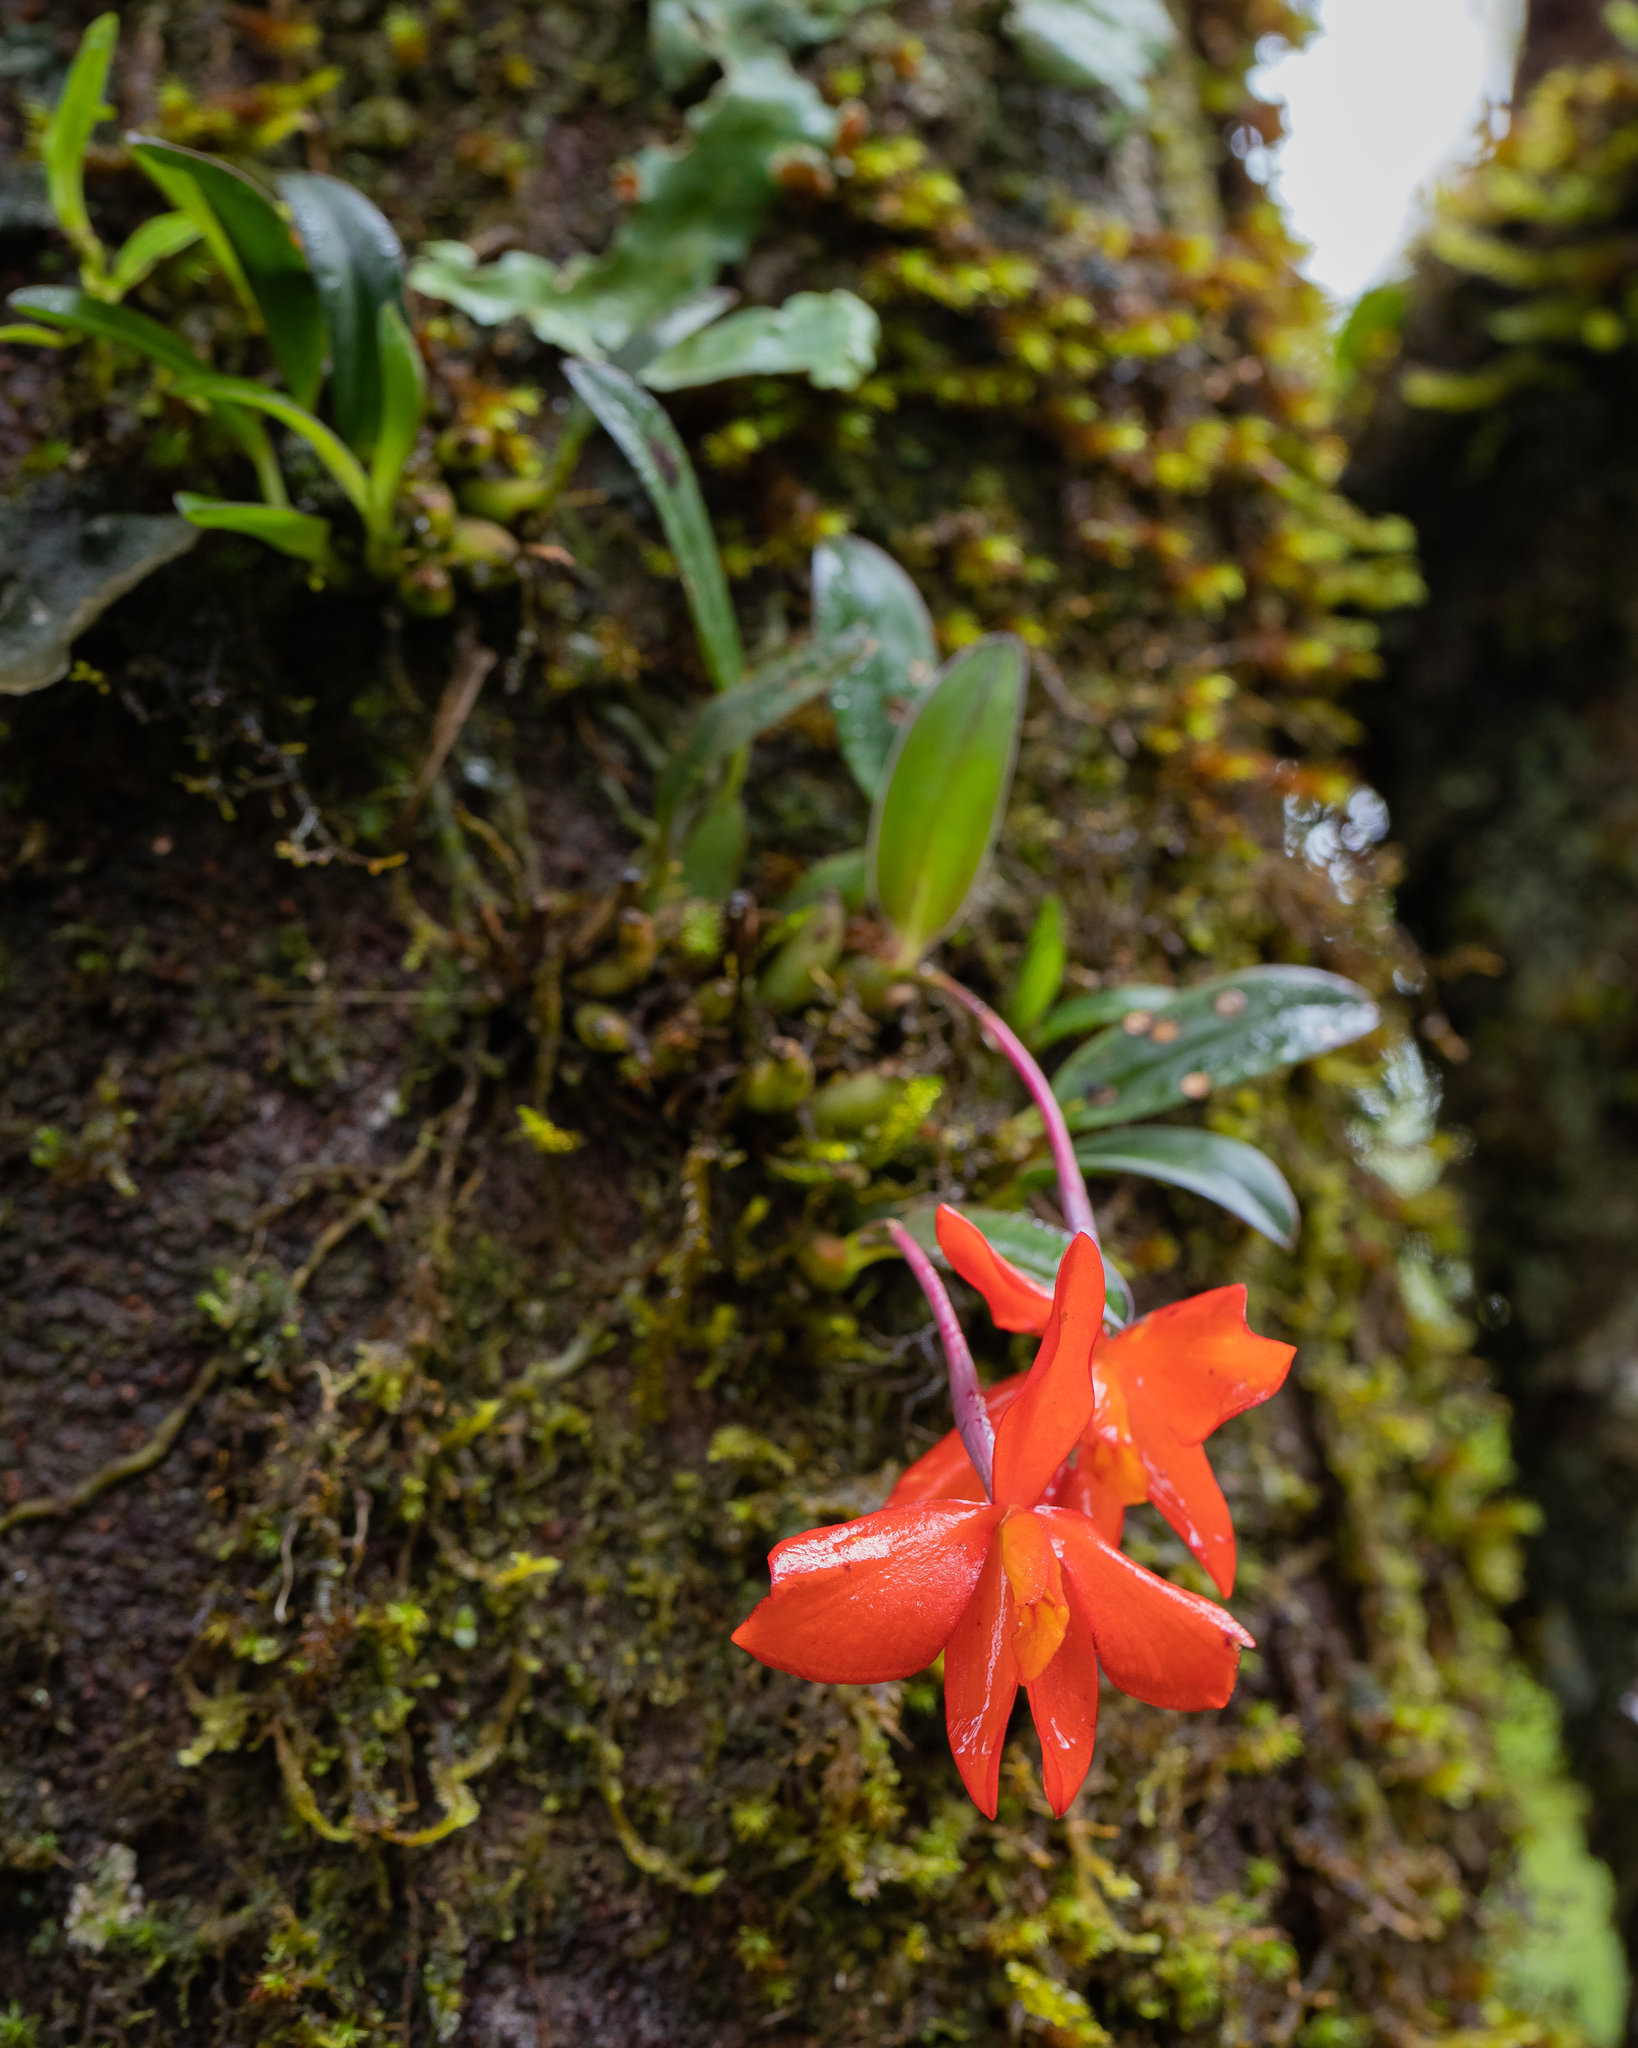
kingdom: Plantae
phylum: Tracheophyta
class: Liliopsida
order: Asparagales
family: Orchidaceae
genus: Cattleya
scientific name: Cattleya coccinea
